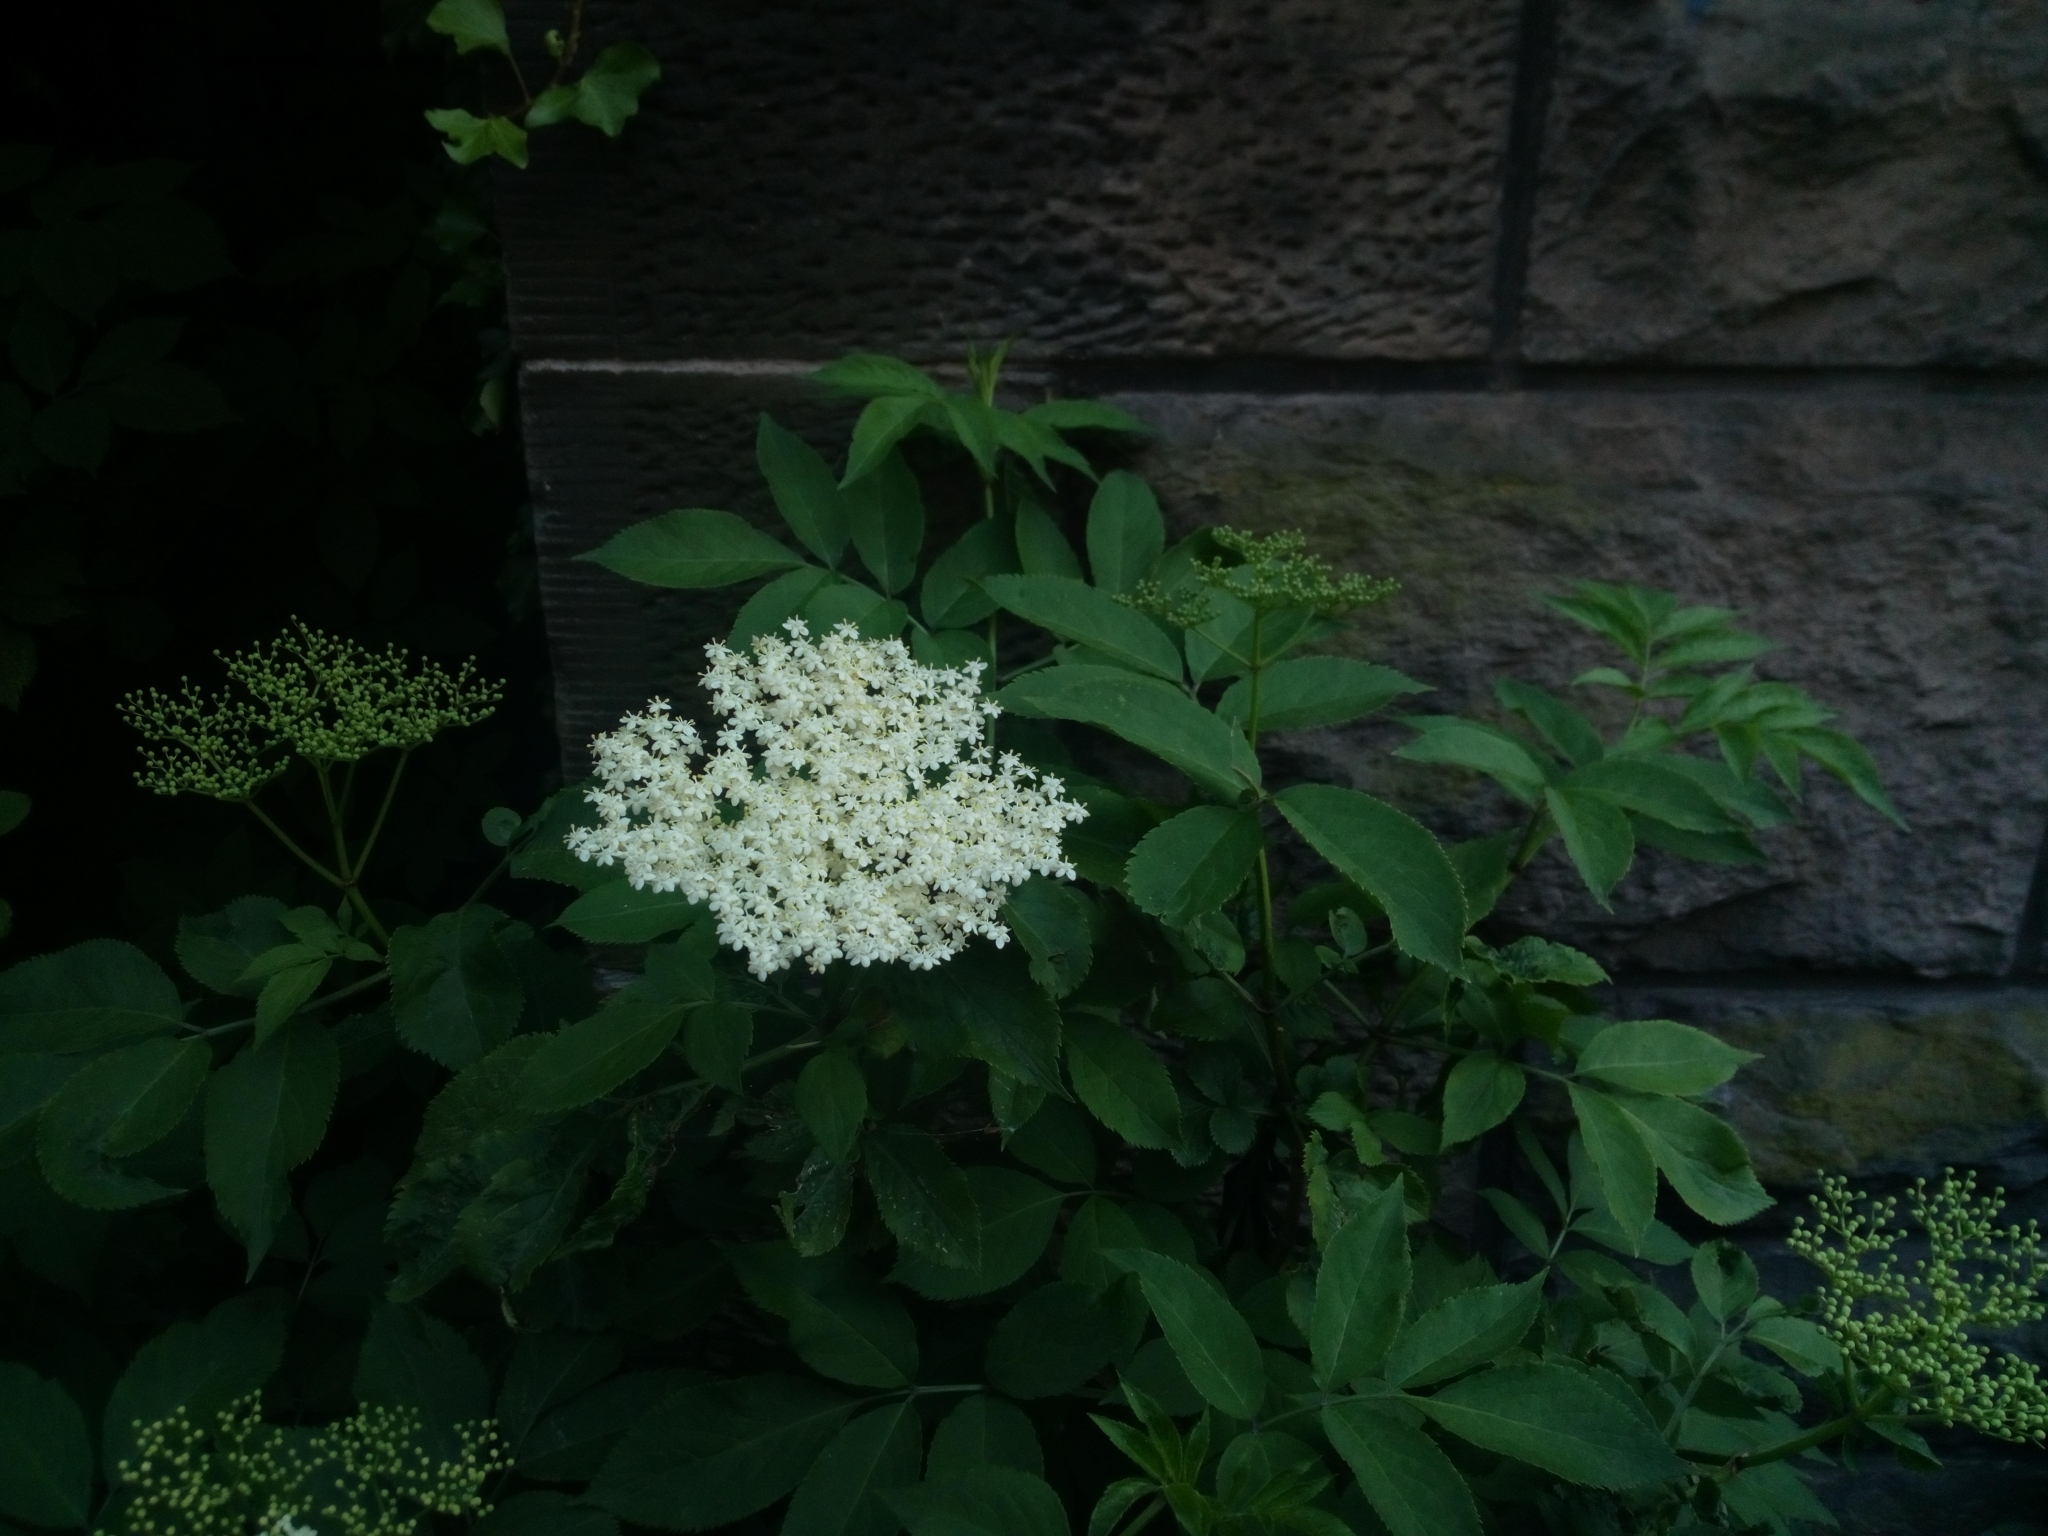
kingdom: Plantae
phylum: Tracheophyta
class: Magnoliopsida
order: Dipsacales
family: Viburnaceae
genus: Sambucus
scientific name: Sambucus nigra
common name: Elder
